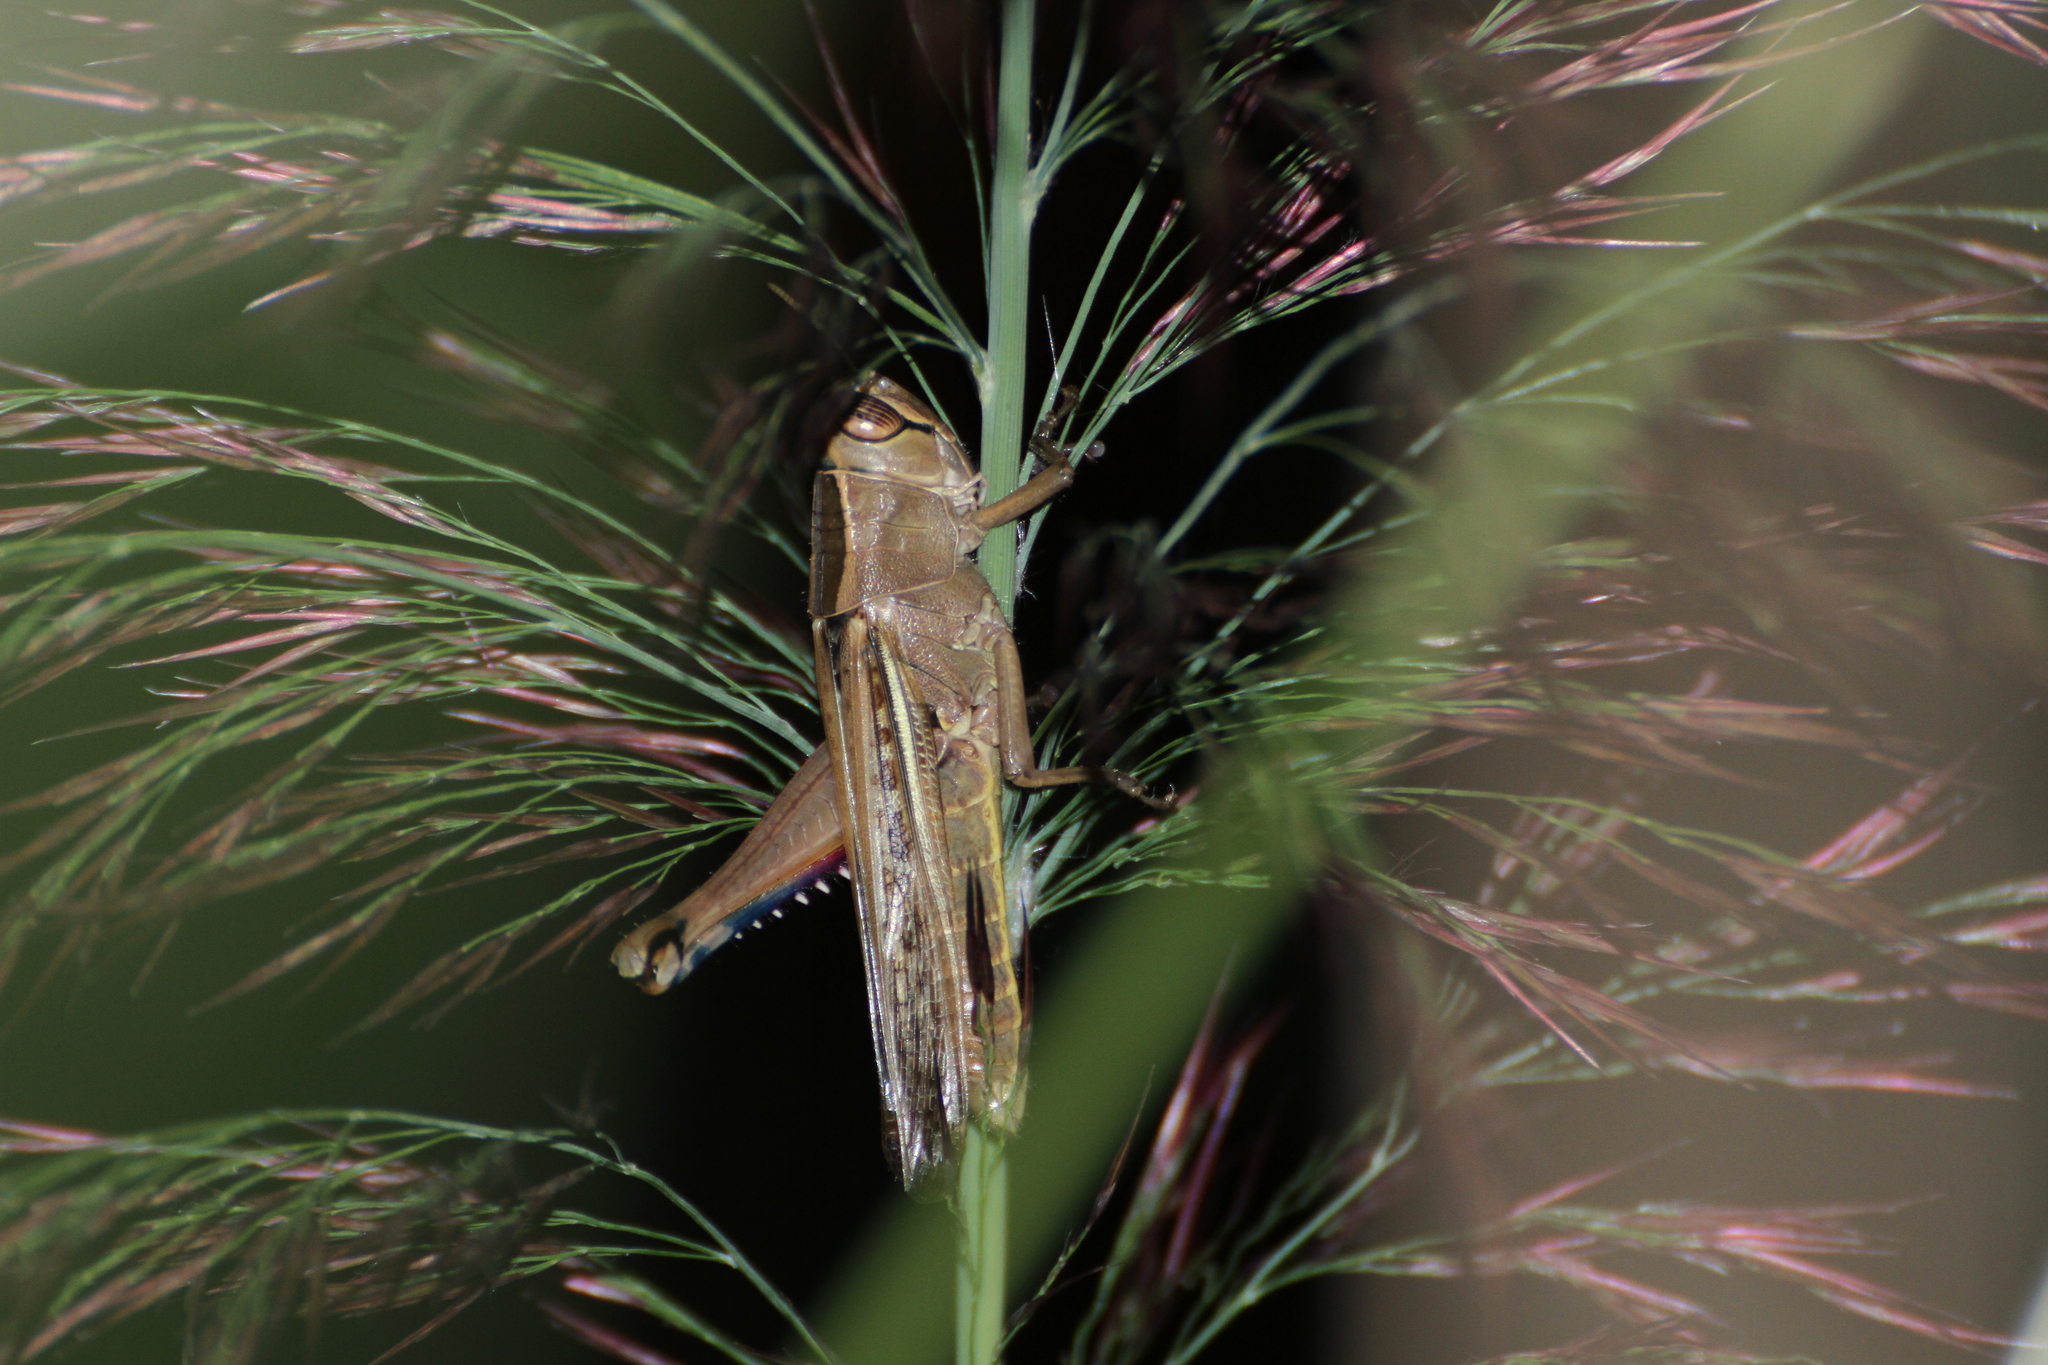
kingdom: Animalia
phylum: Arthropoda
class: Insecta
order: Orthoptera
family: Acrididae
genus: Eyprepocnemis
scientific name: Eyprepocnemis plorans
